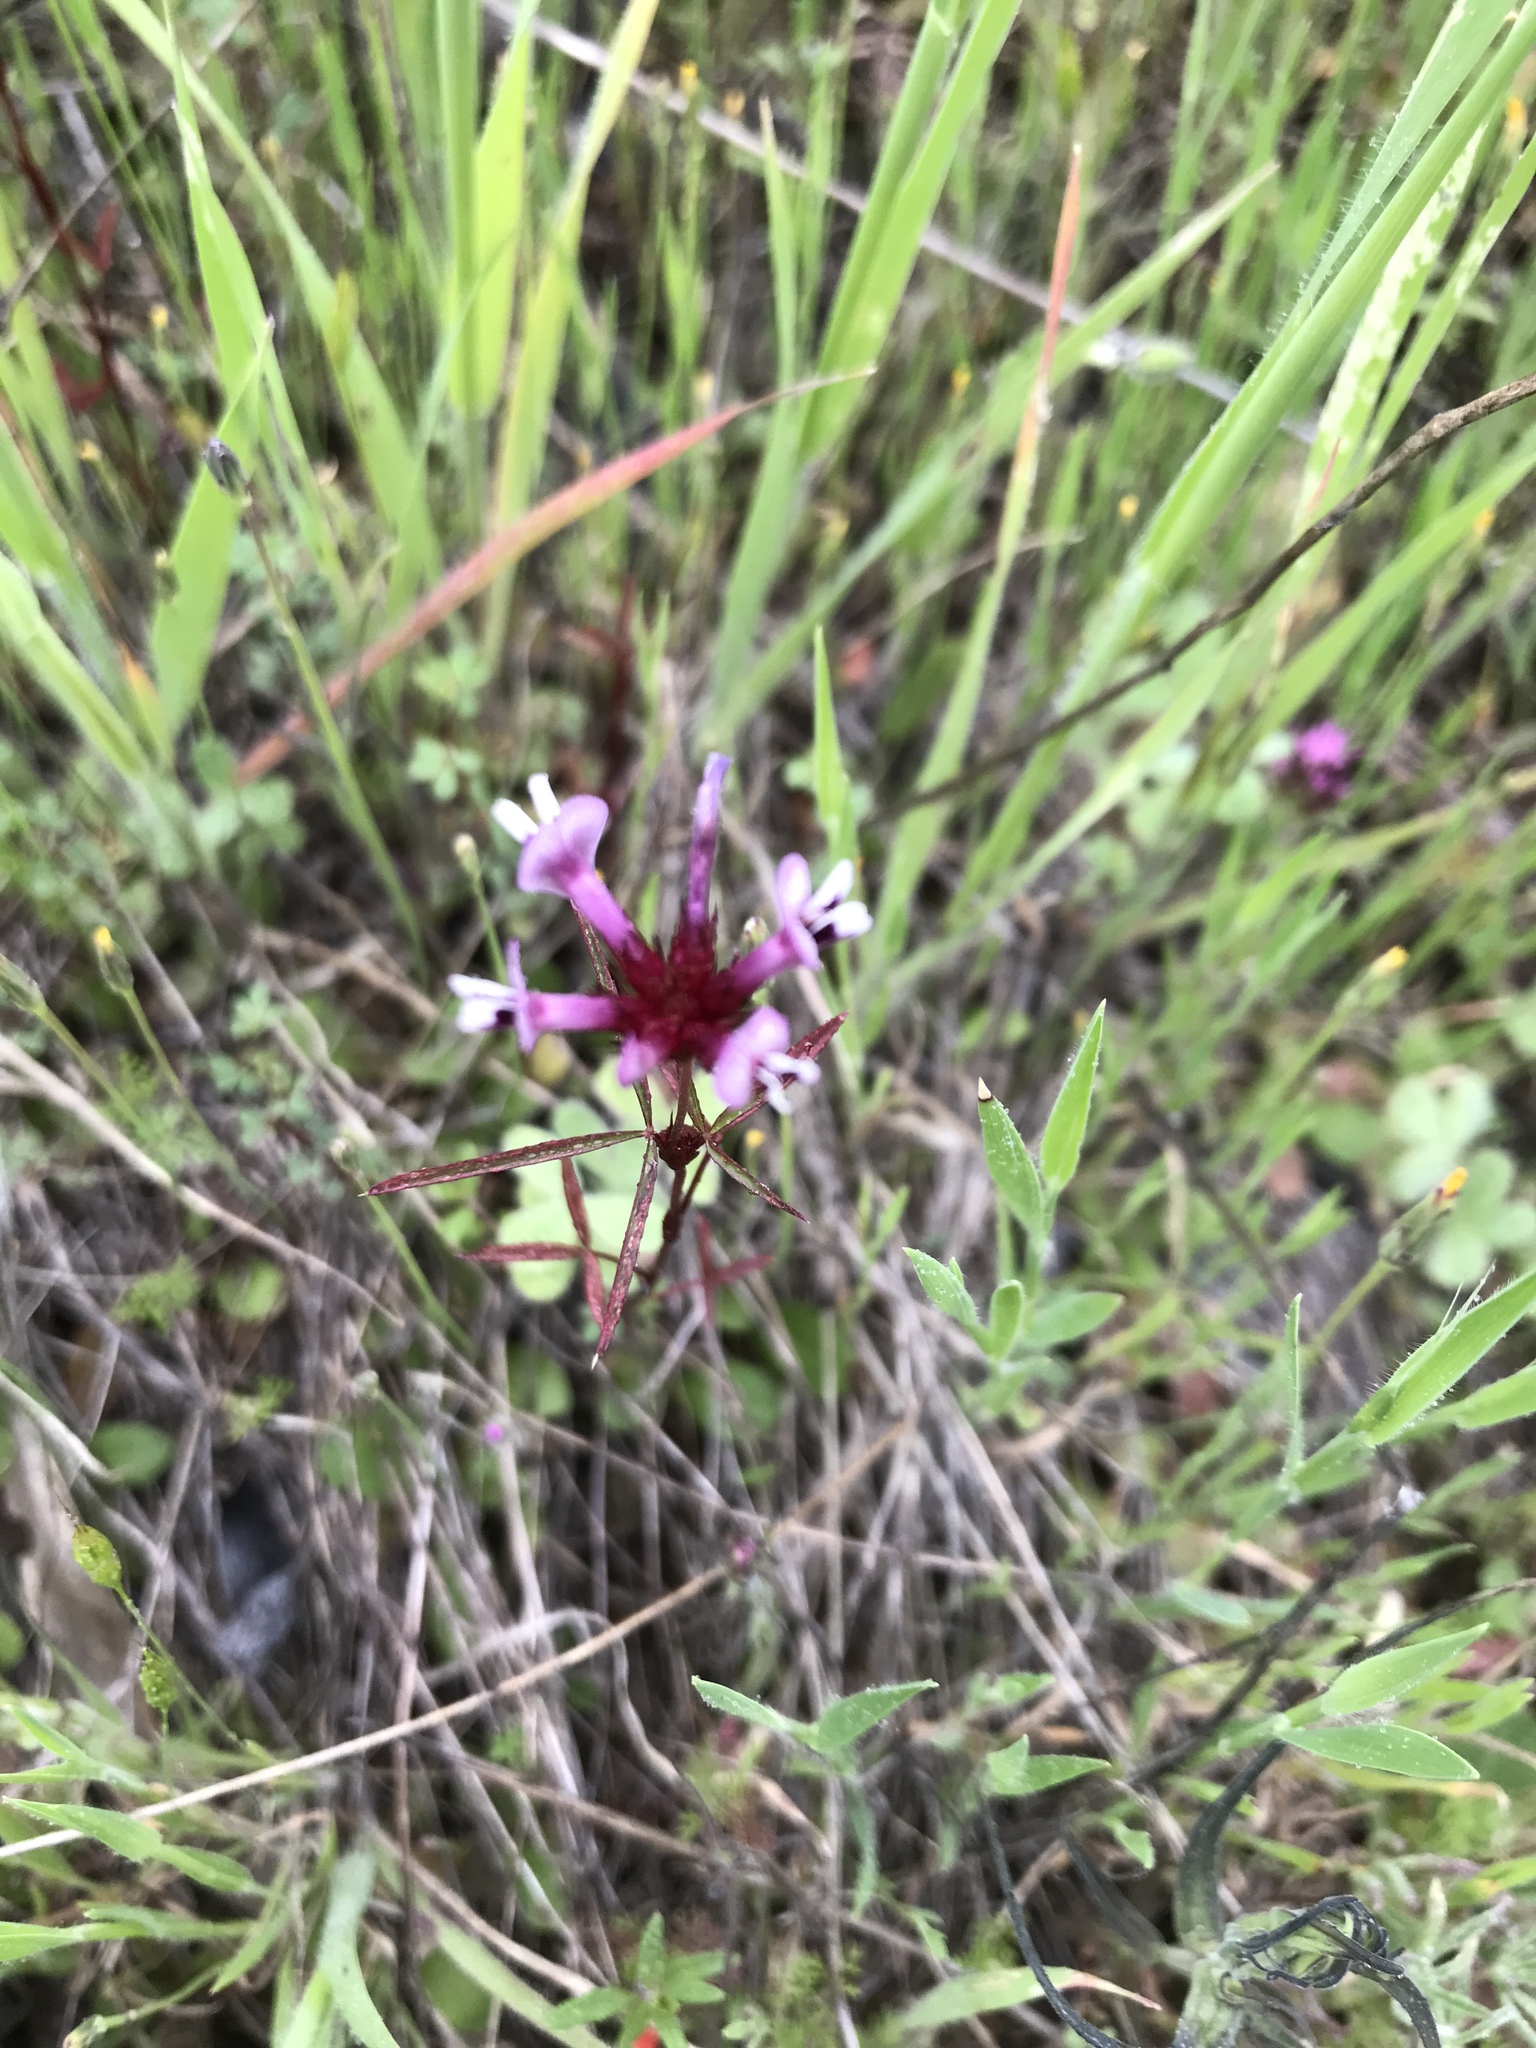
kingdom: Plantae
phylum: Tracheophyta
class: Magnoliopsida
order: Fabales
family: Fabaceae
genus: Trifolium
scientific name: Trifolium willdenovii
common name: Tomcat clover
